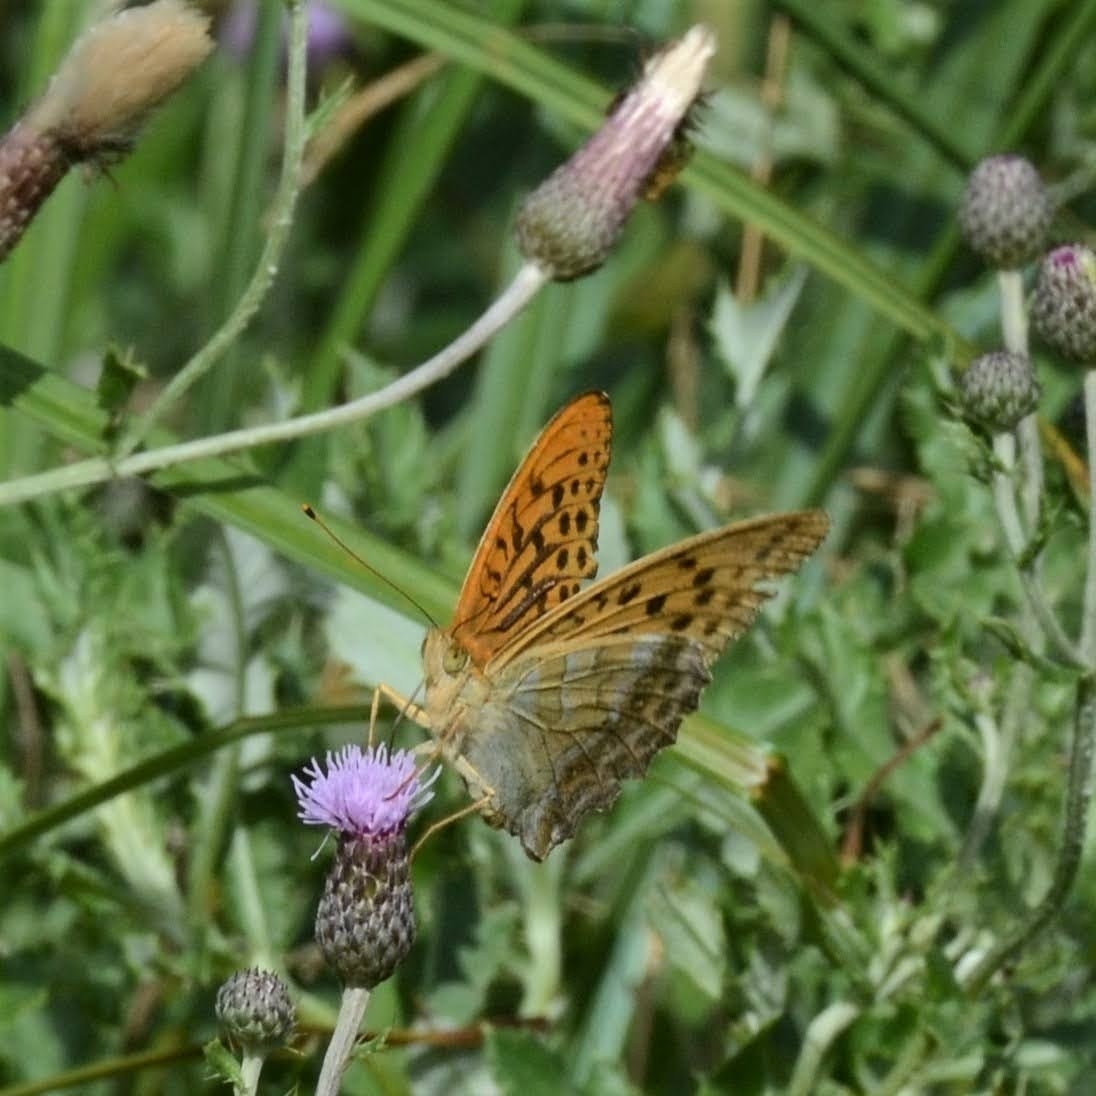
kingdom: Animalia
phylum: Arthropoda
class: Insecta
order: Lepidoptera
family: Nymphalidae
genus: Argynnis
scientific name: Argynnis paphia
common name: Silver-washed fritillary
